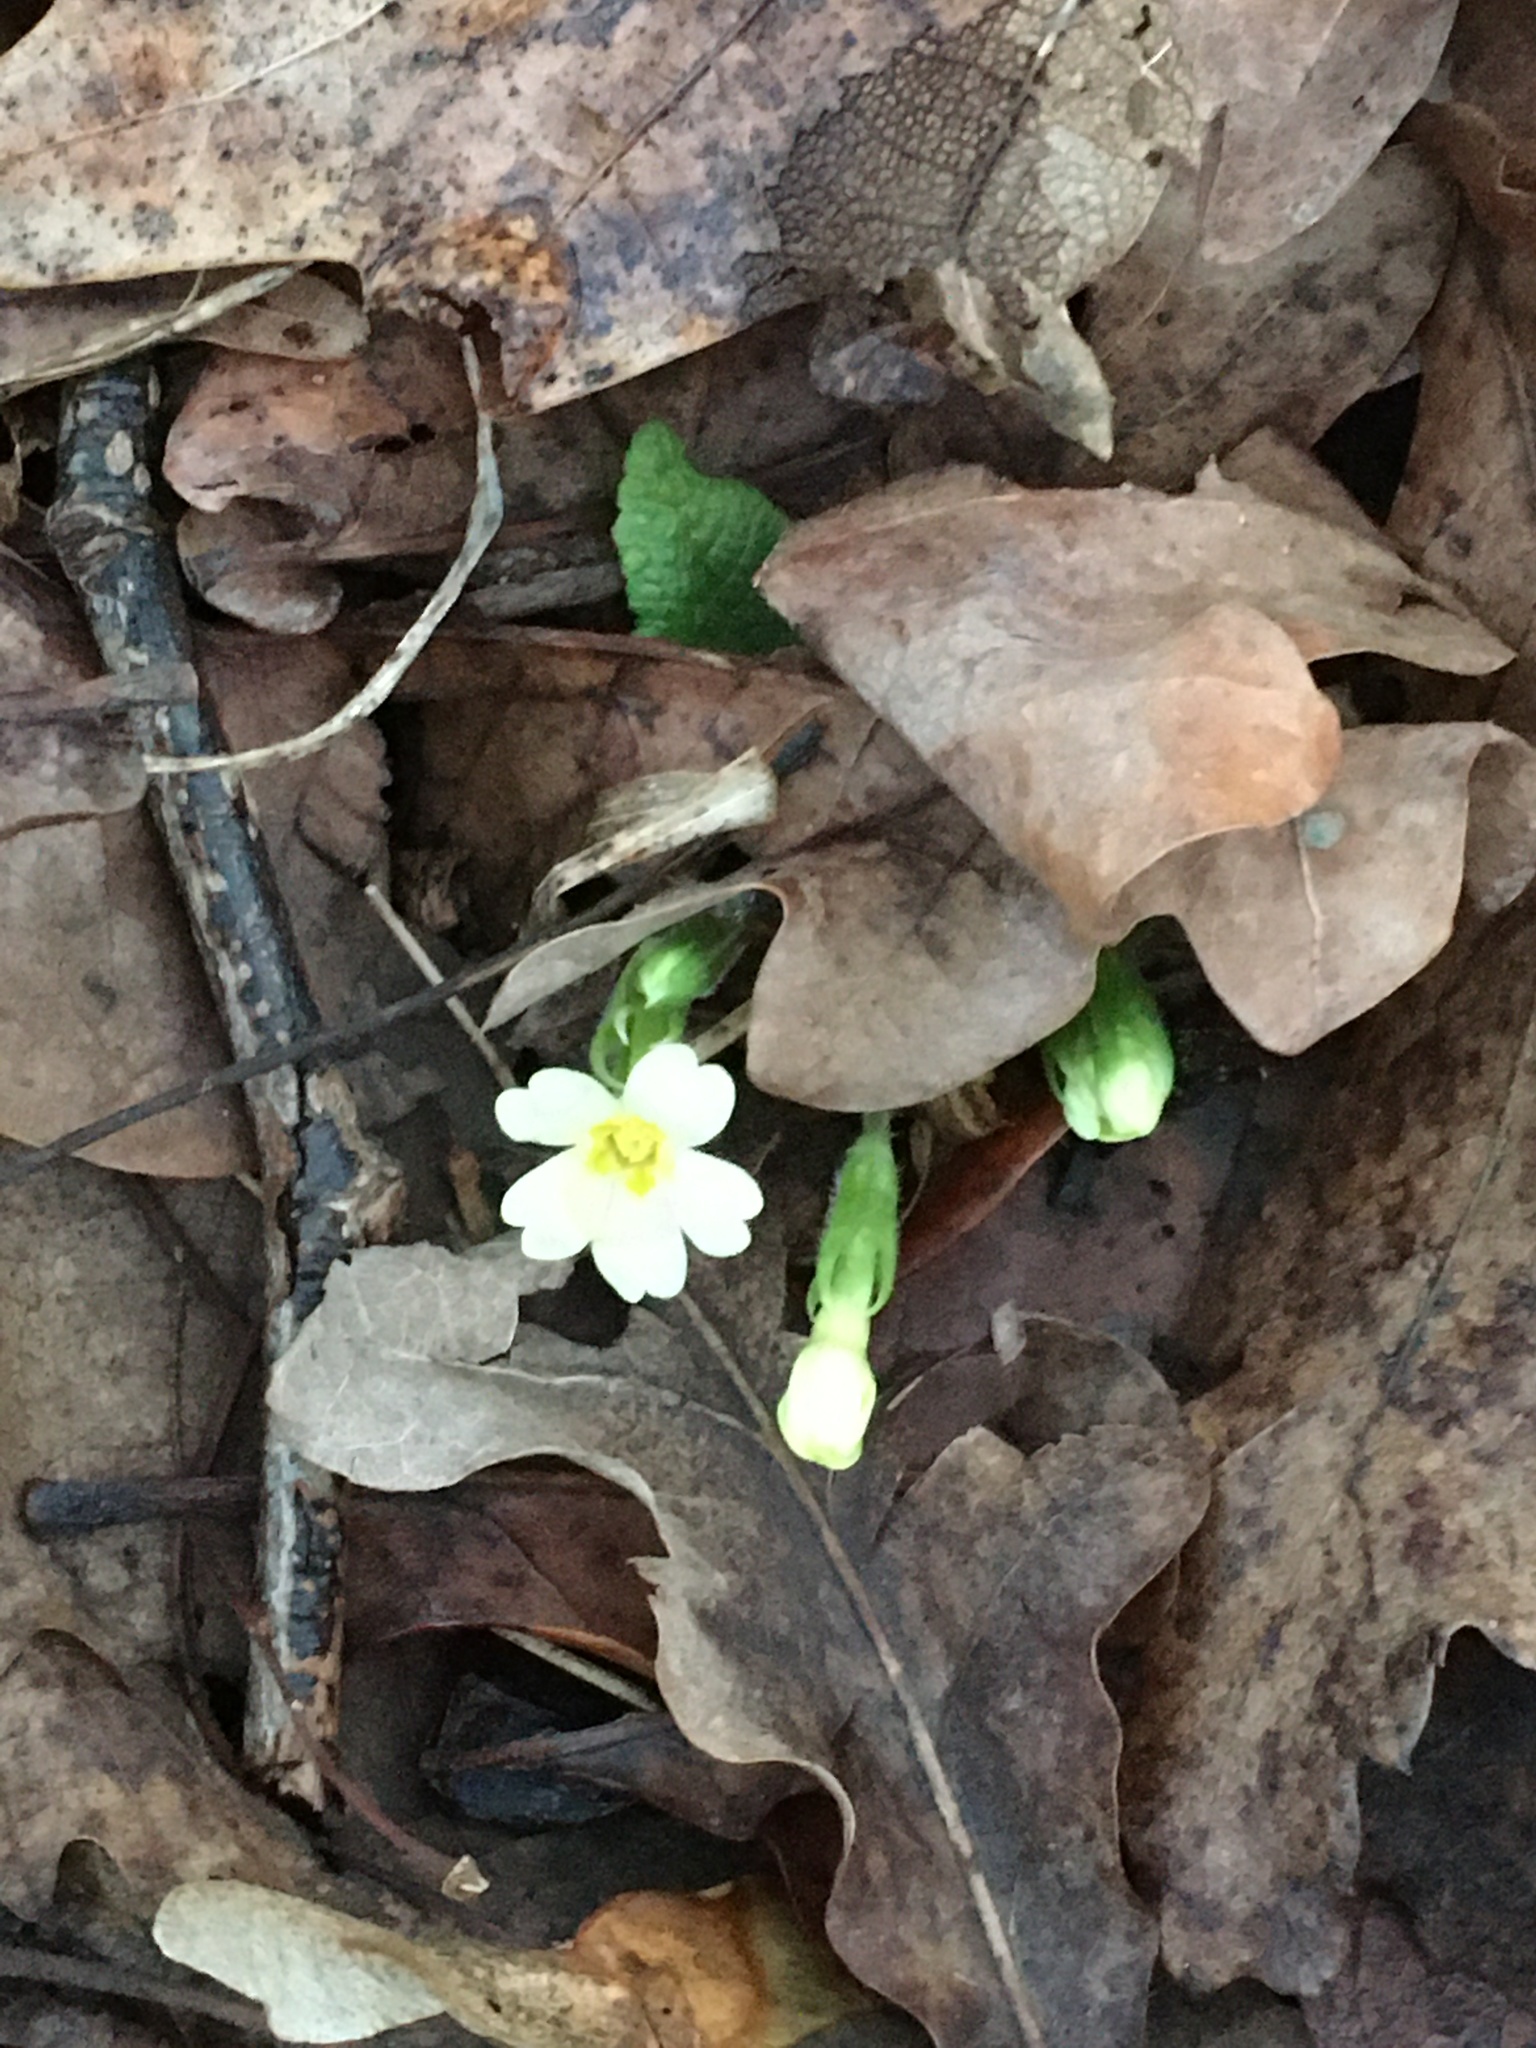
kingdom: Plantae
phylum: Tracheophyta
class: Magnoliopsida
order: Ericales
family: Primulaceae
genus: Primula
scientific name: Primula vulgaris
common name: Primrose
